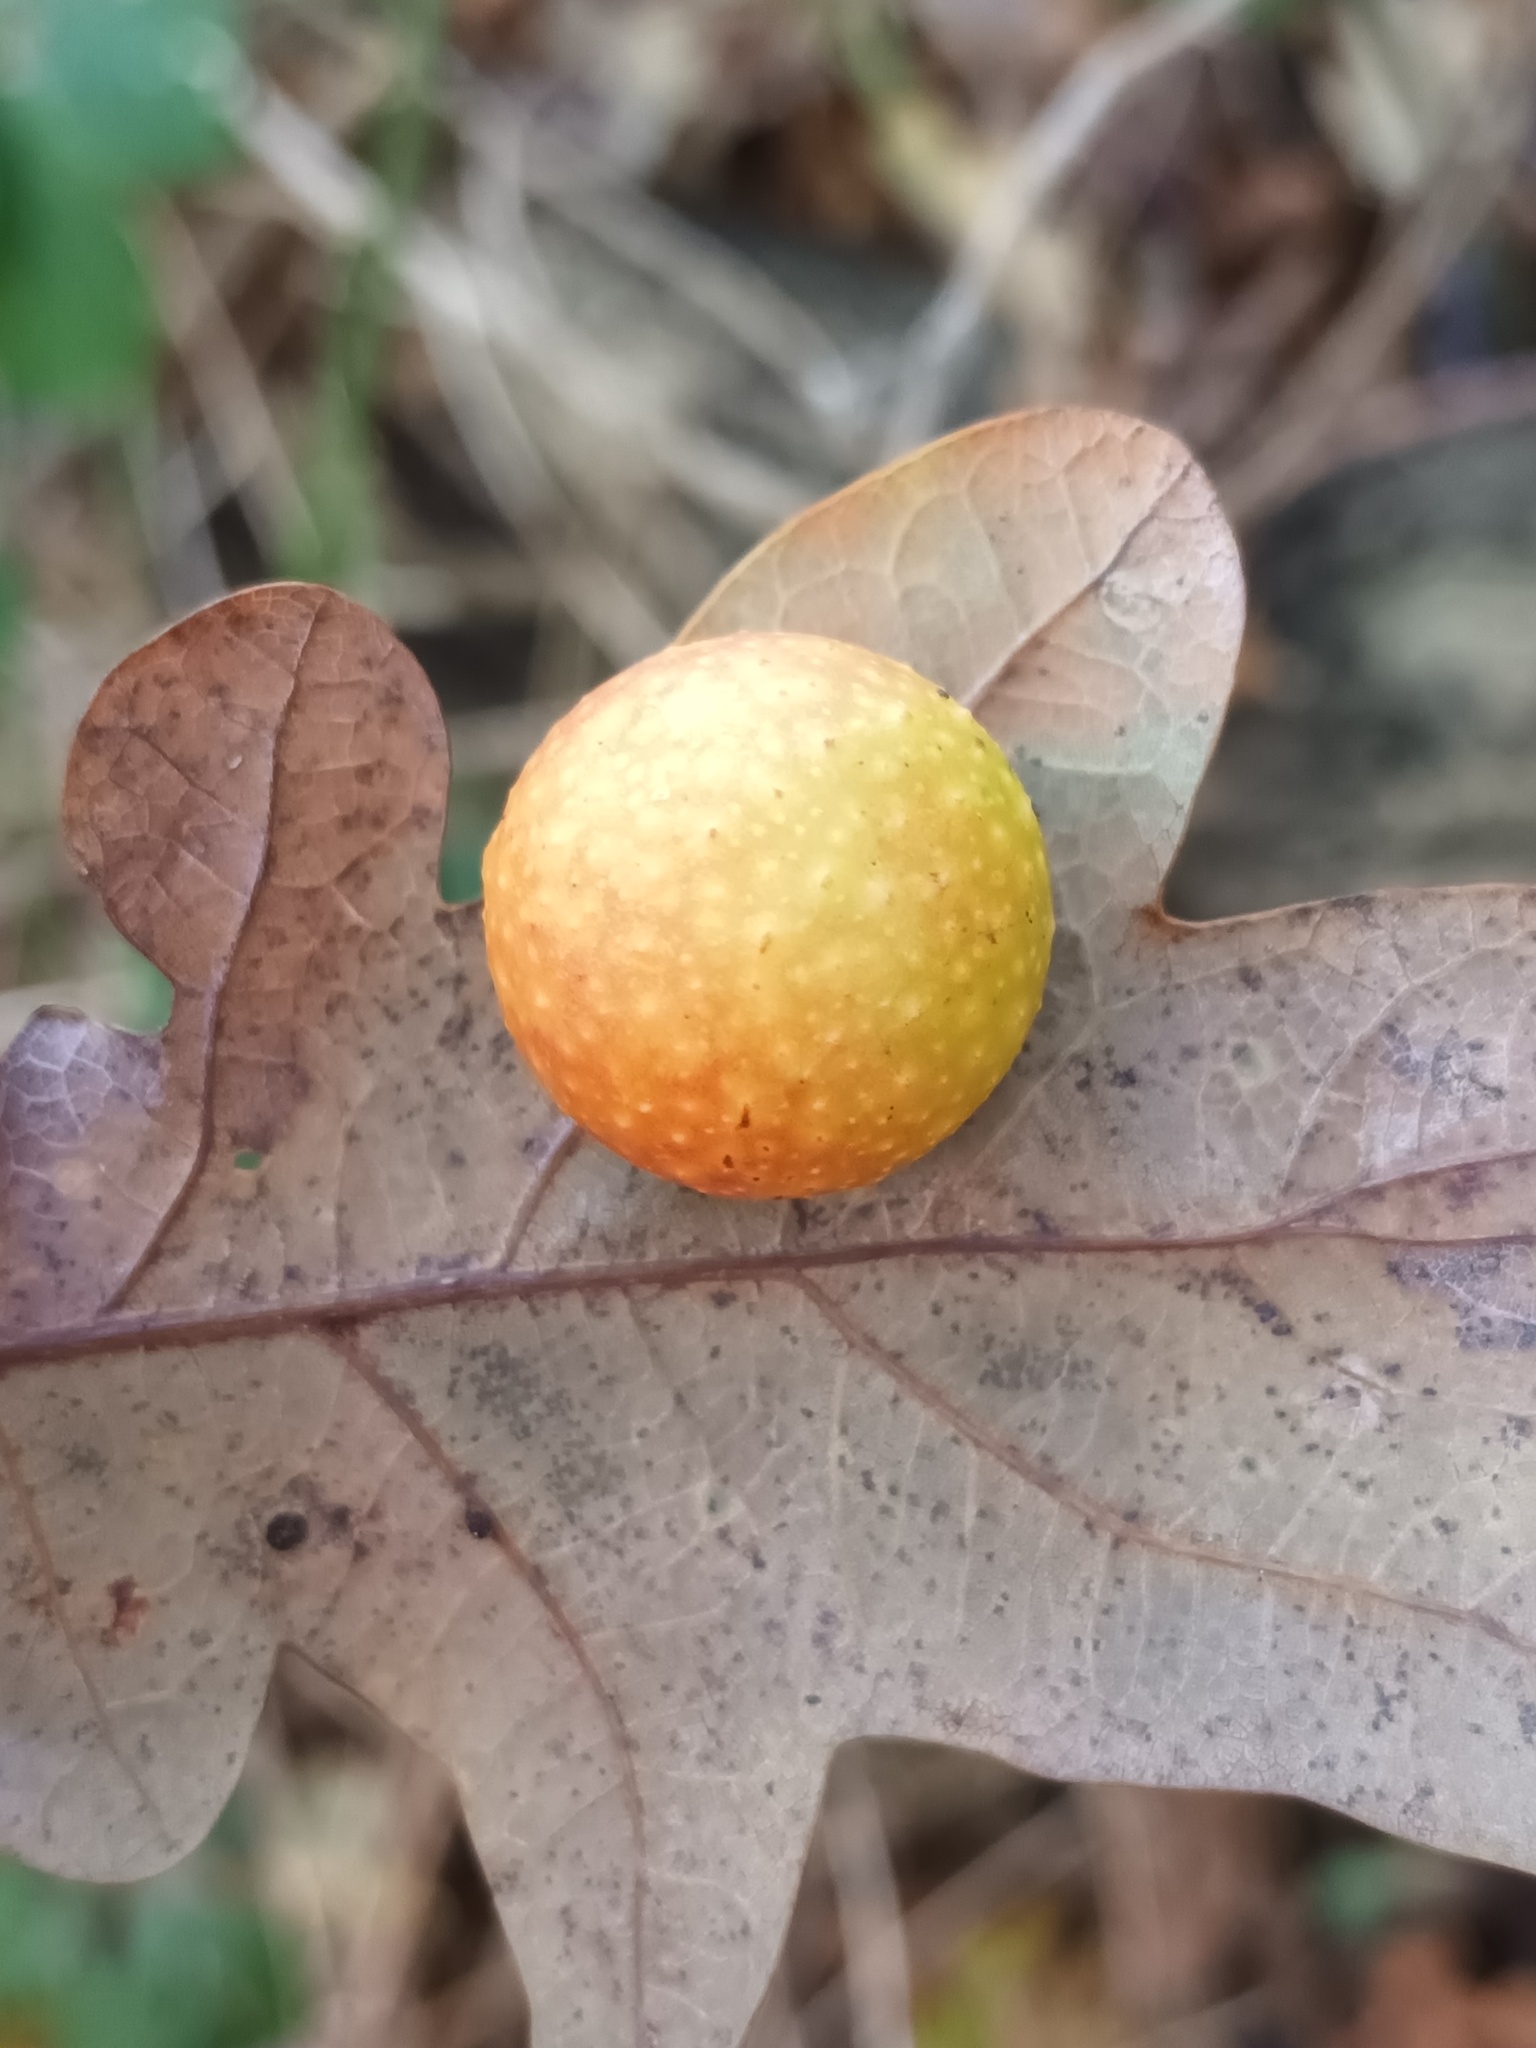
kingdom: Animalia
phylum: Arthropoda
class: Insecta
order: Hymenoptera
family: Cynipidae
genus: Cynips
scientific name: Cynips quercusfolii
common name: Cherry gall
